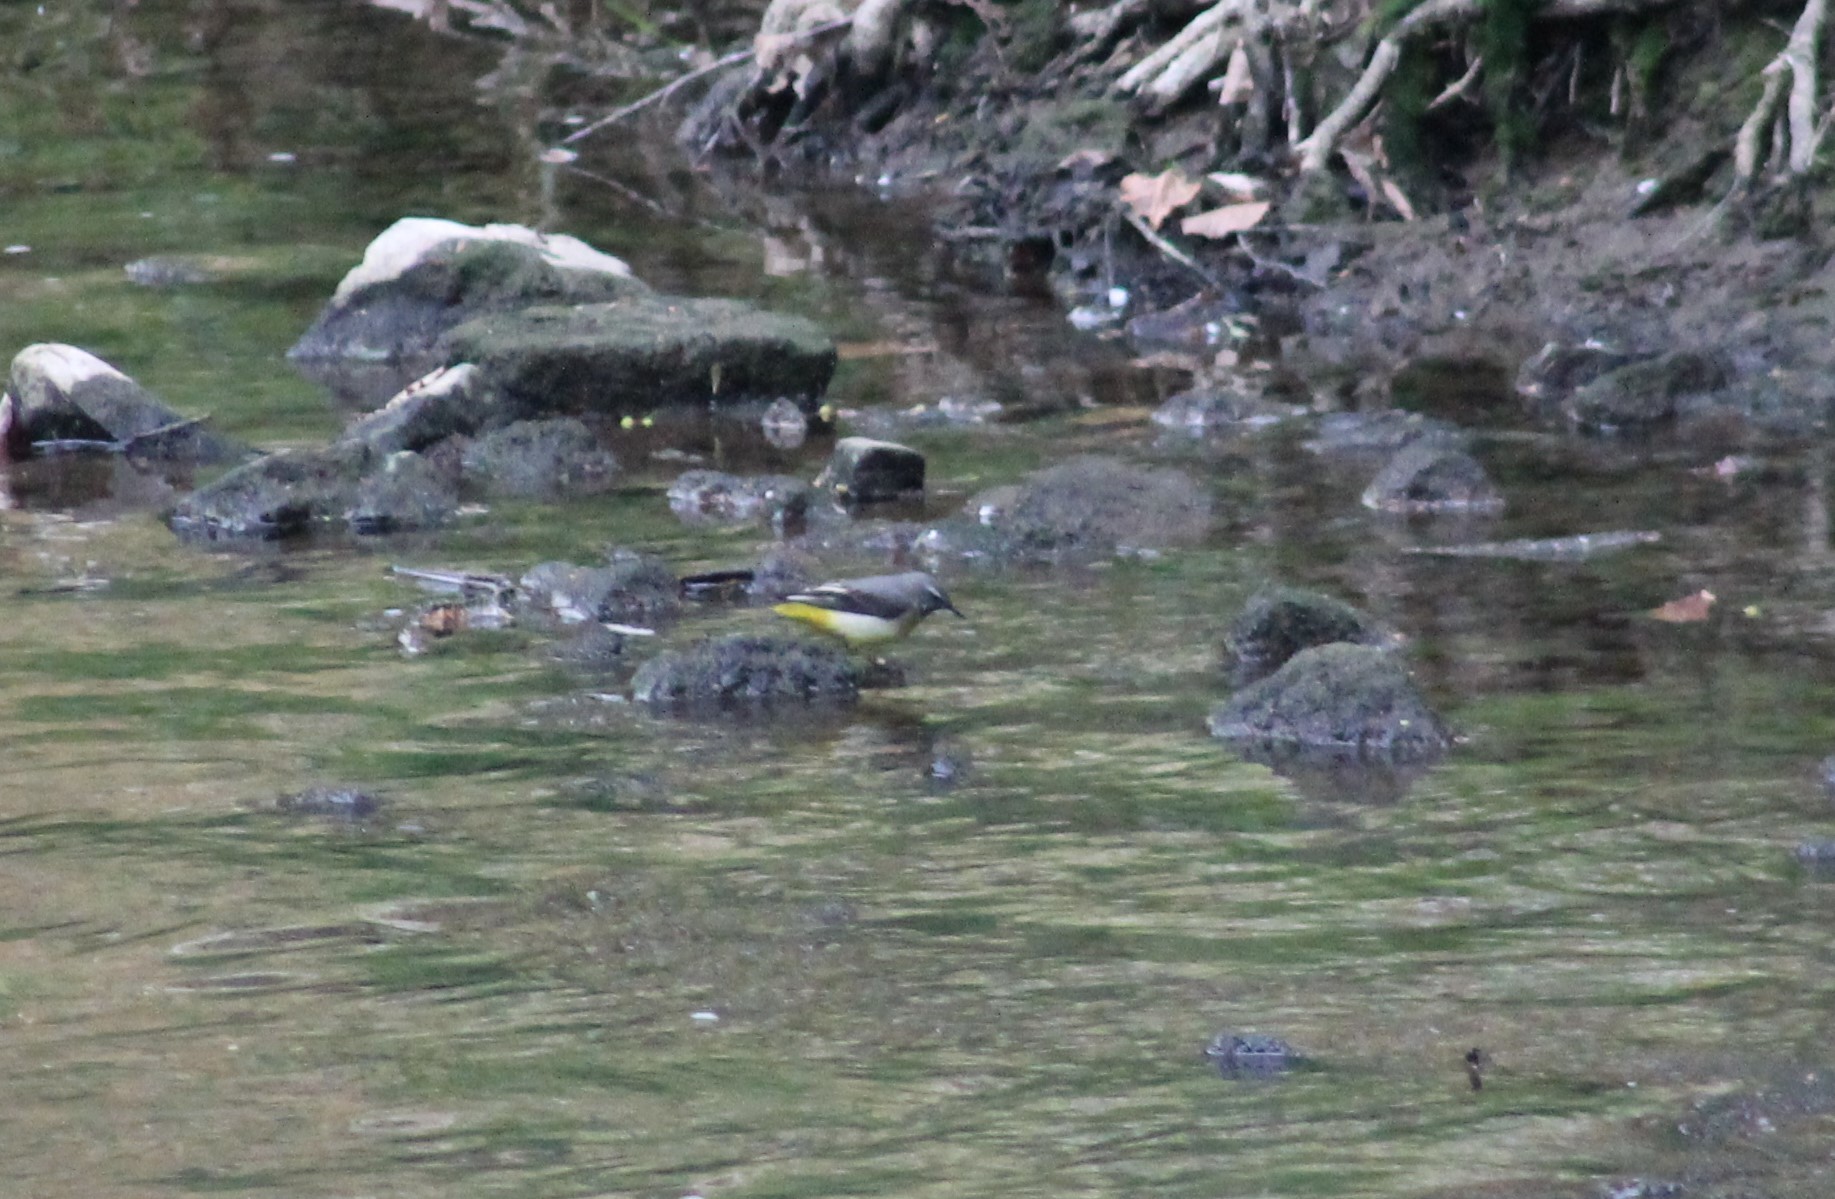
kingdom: Animalia
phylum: Chordata
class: Aves
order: Passeriformes
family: Motacillidae
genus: Motacilla
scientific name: Motacilla cinerea
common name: Grey wagtail
